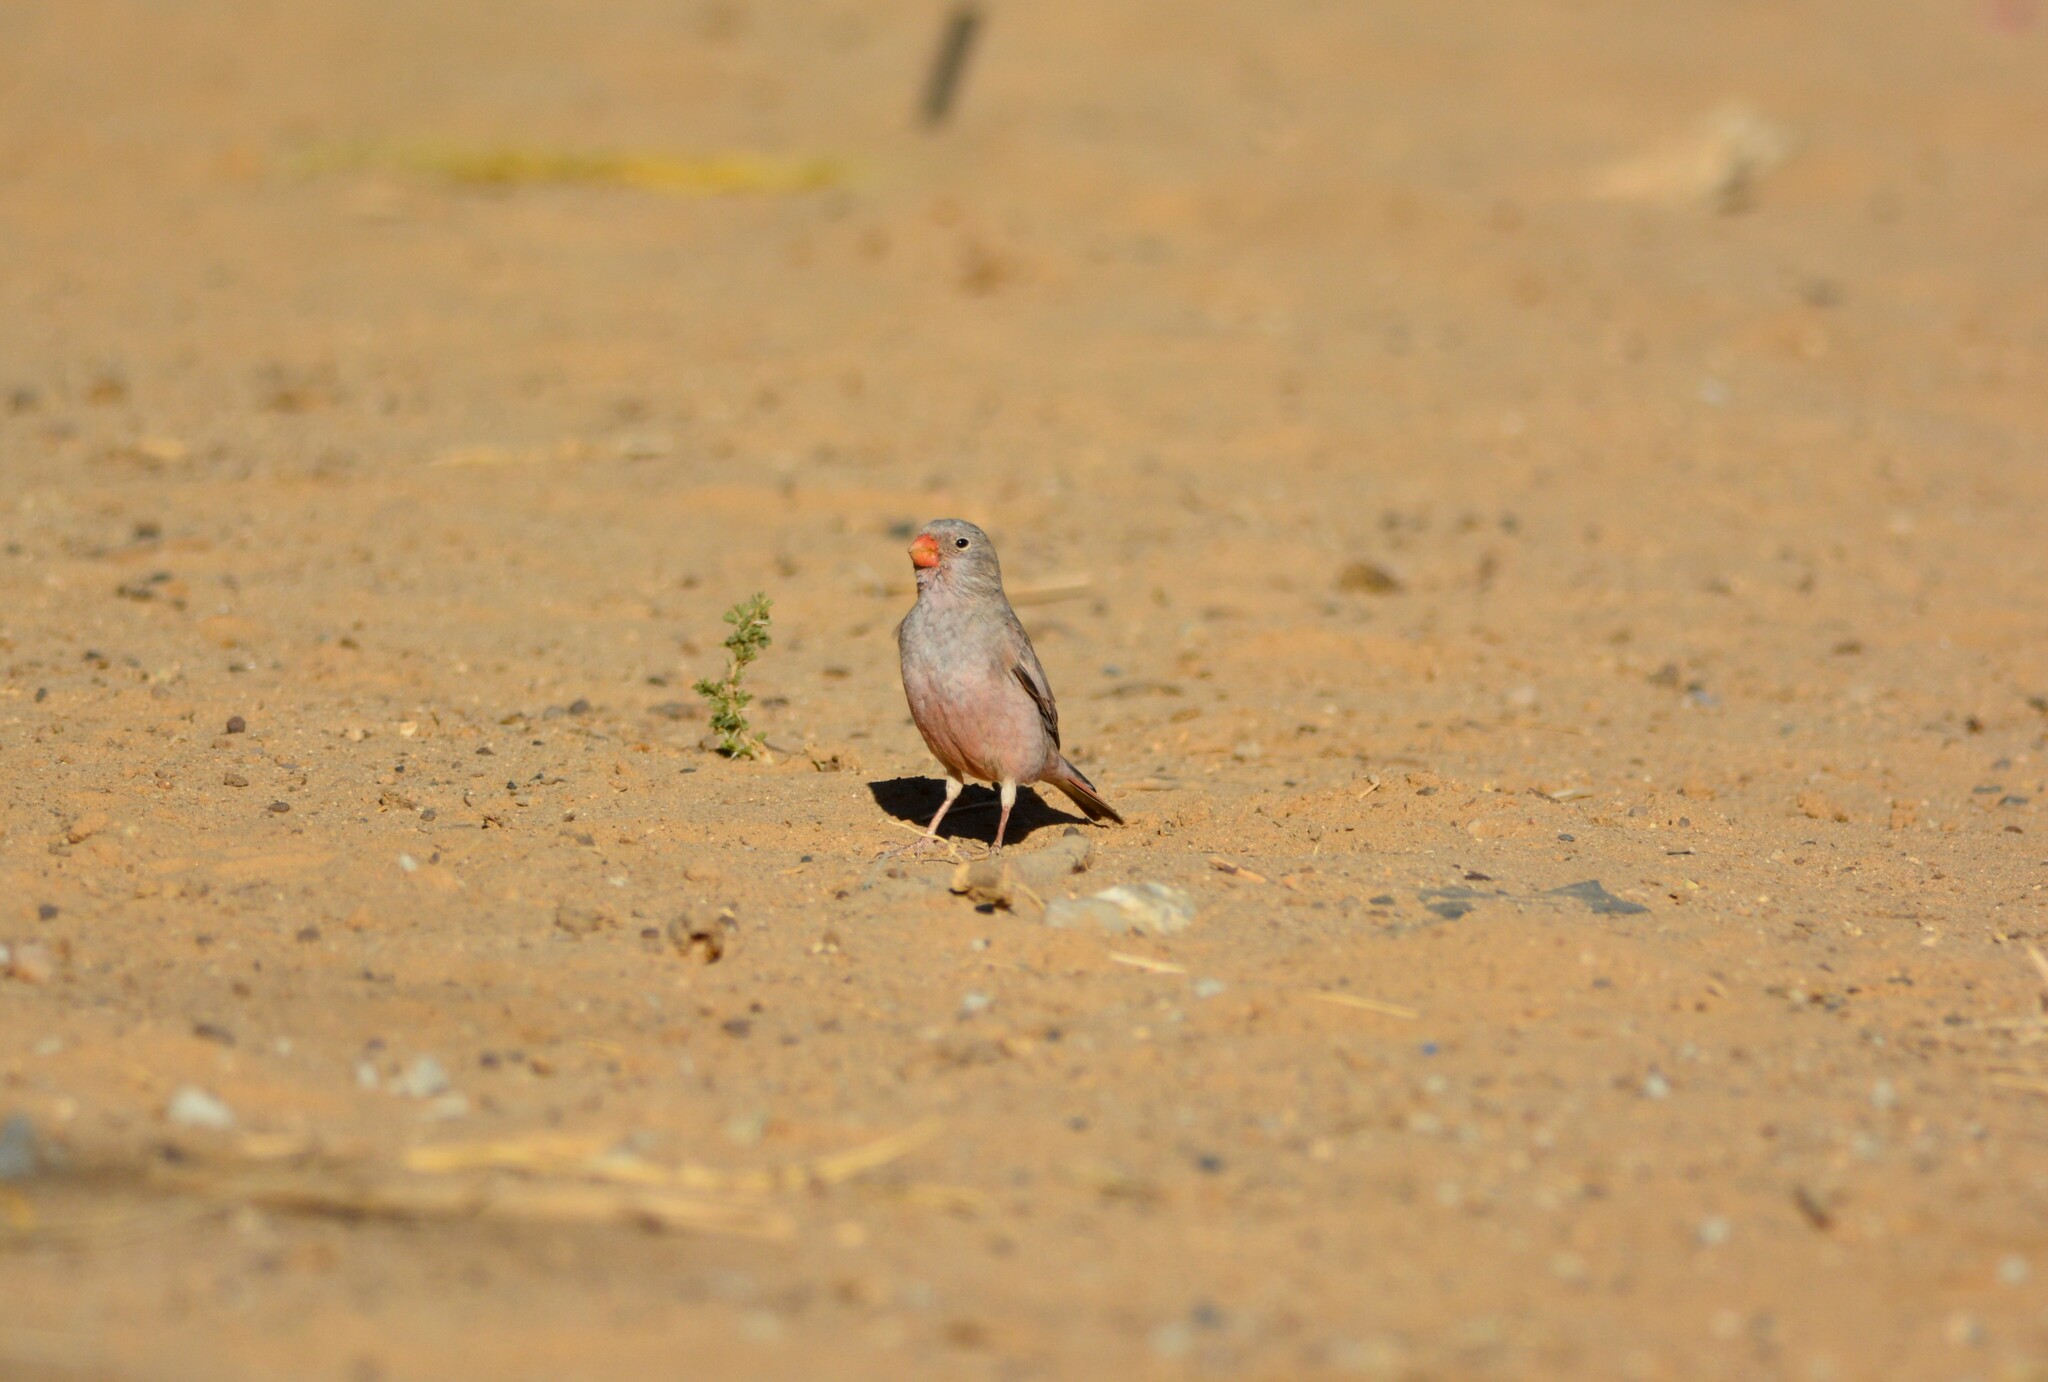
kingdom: Animalia
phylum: Chordata
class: Aves
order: Passeriformes
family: Fringillidae
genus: Bucanetes
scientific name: Bucanetes githagineus
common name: Trumpeter finch
